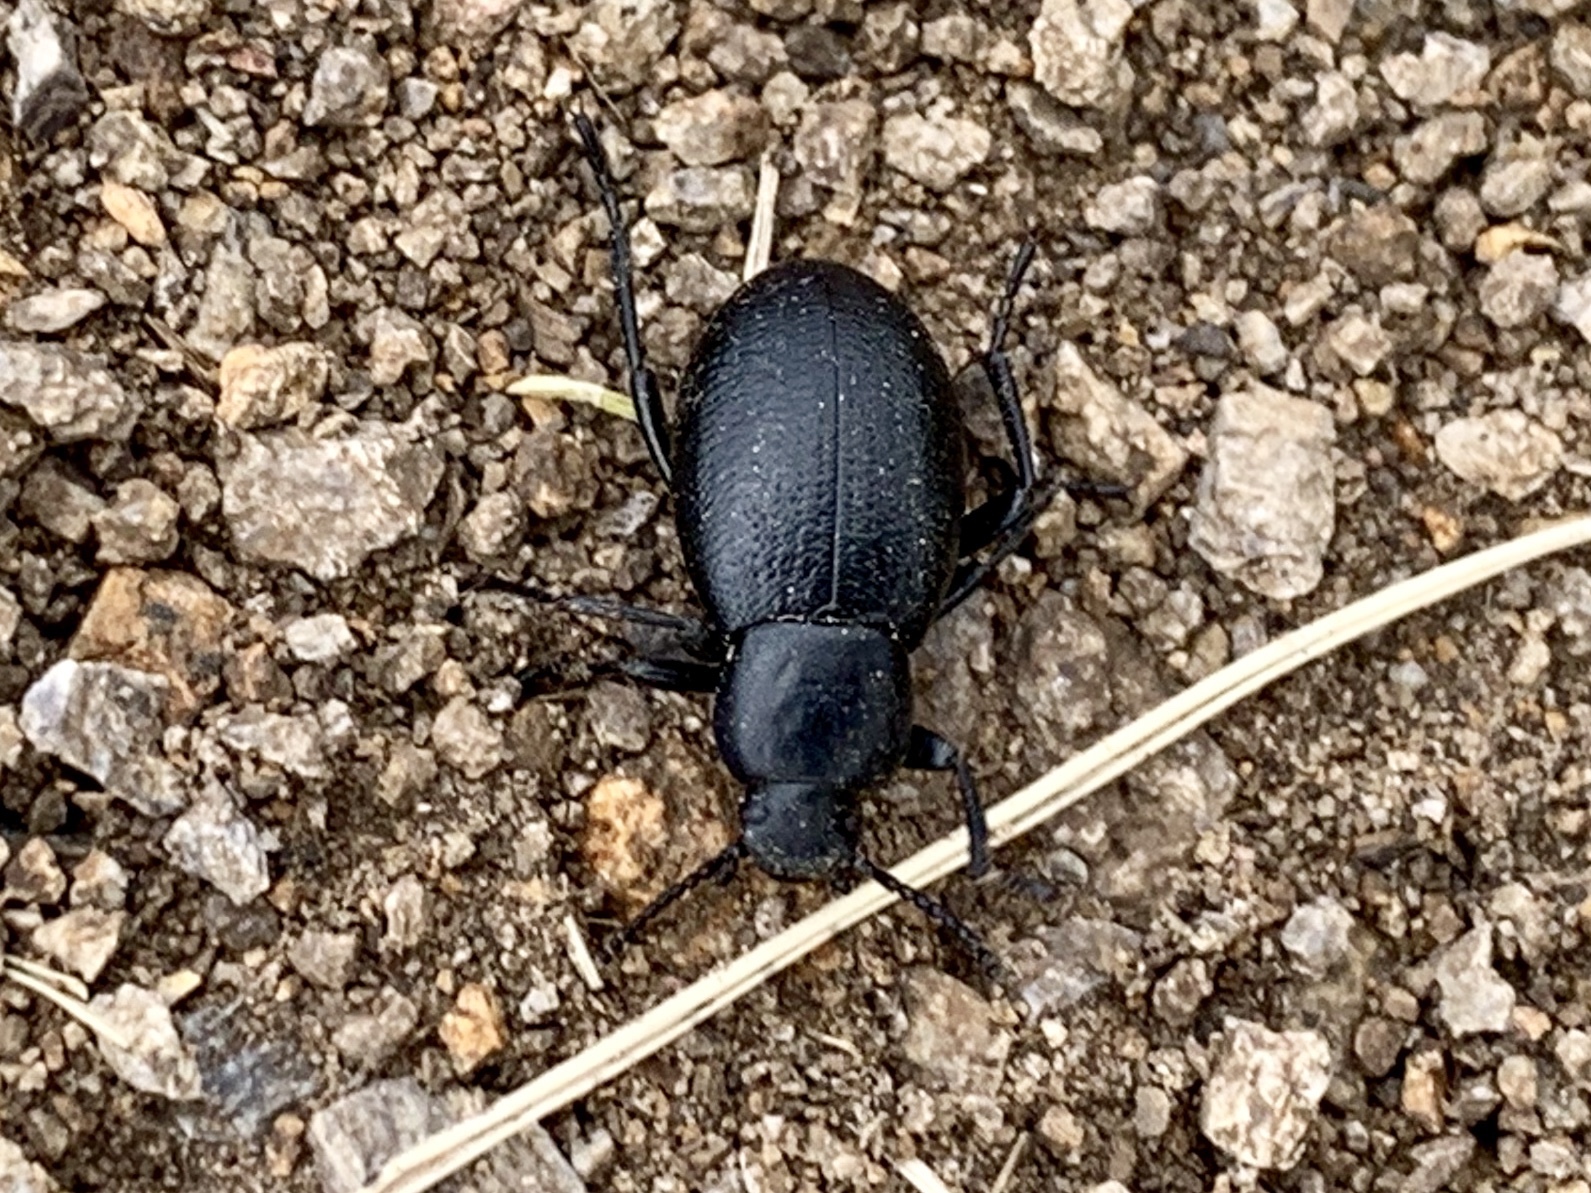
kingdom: Animalia
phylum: Arthropoda
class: Insecta
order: Coleoptera
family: Tenebrionidae
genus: Eleodes
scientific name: Eleodes extricata
